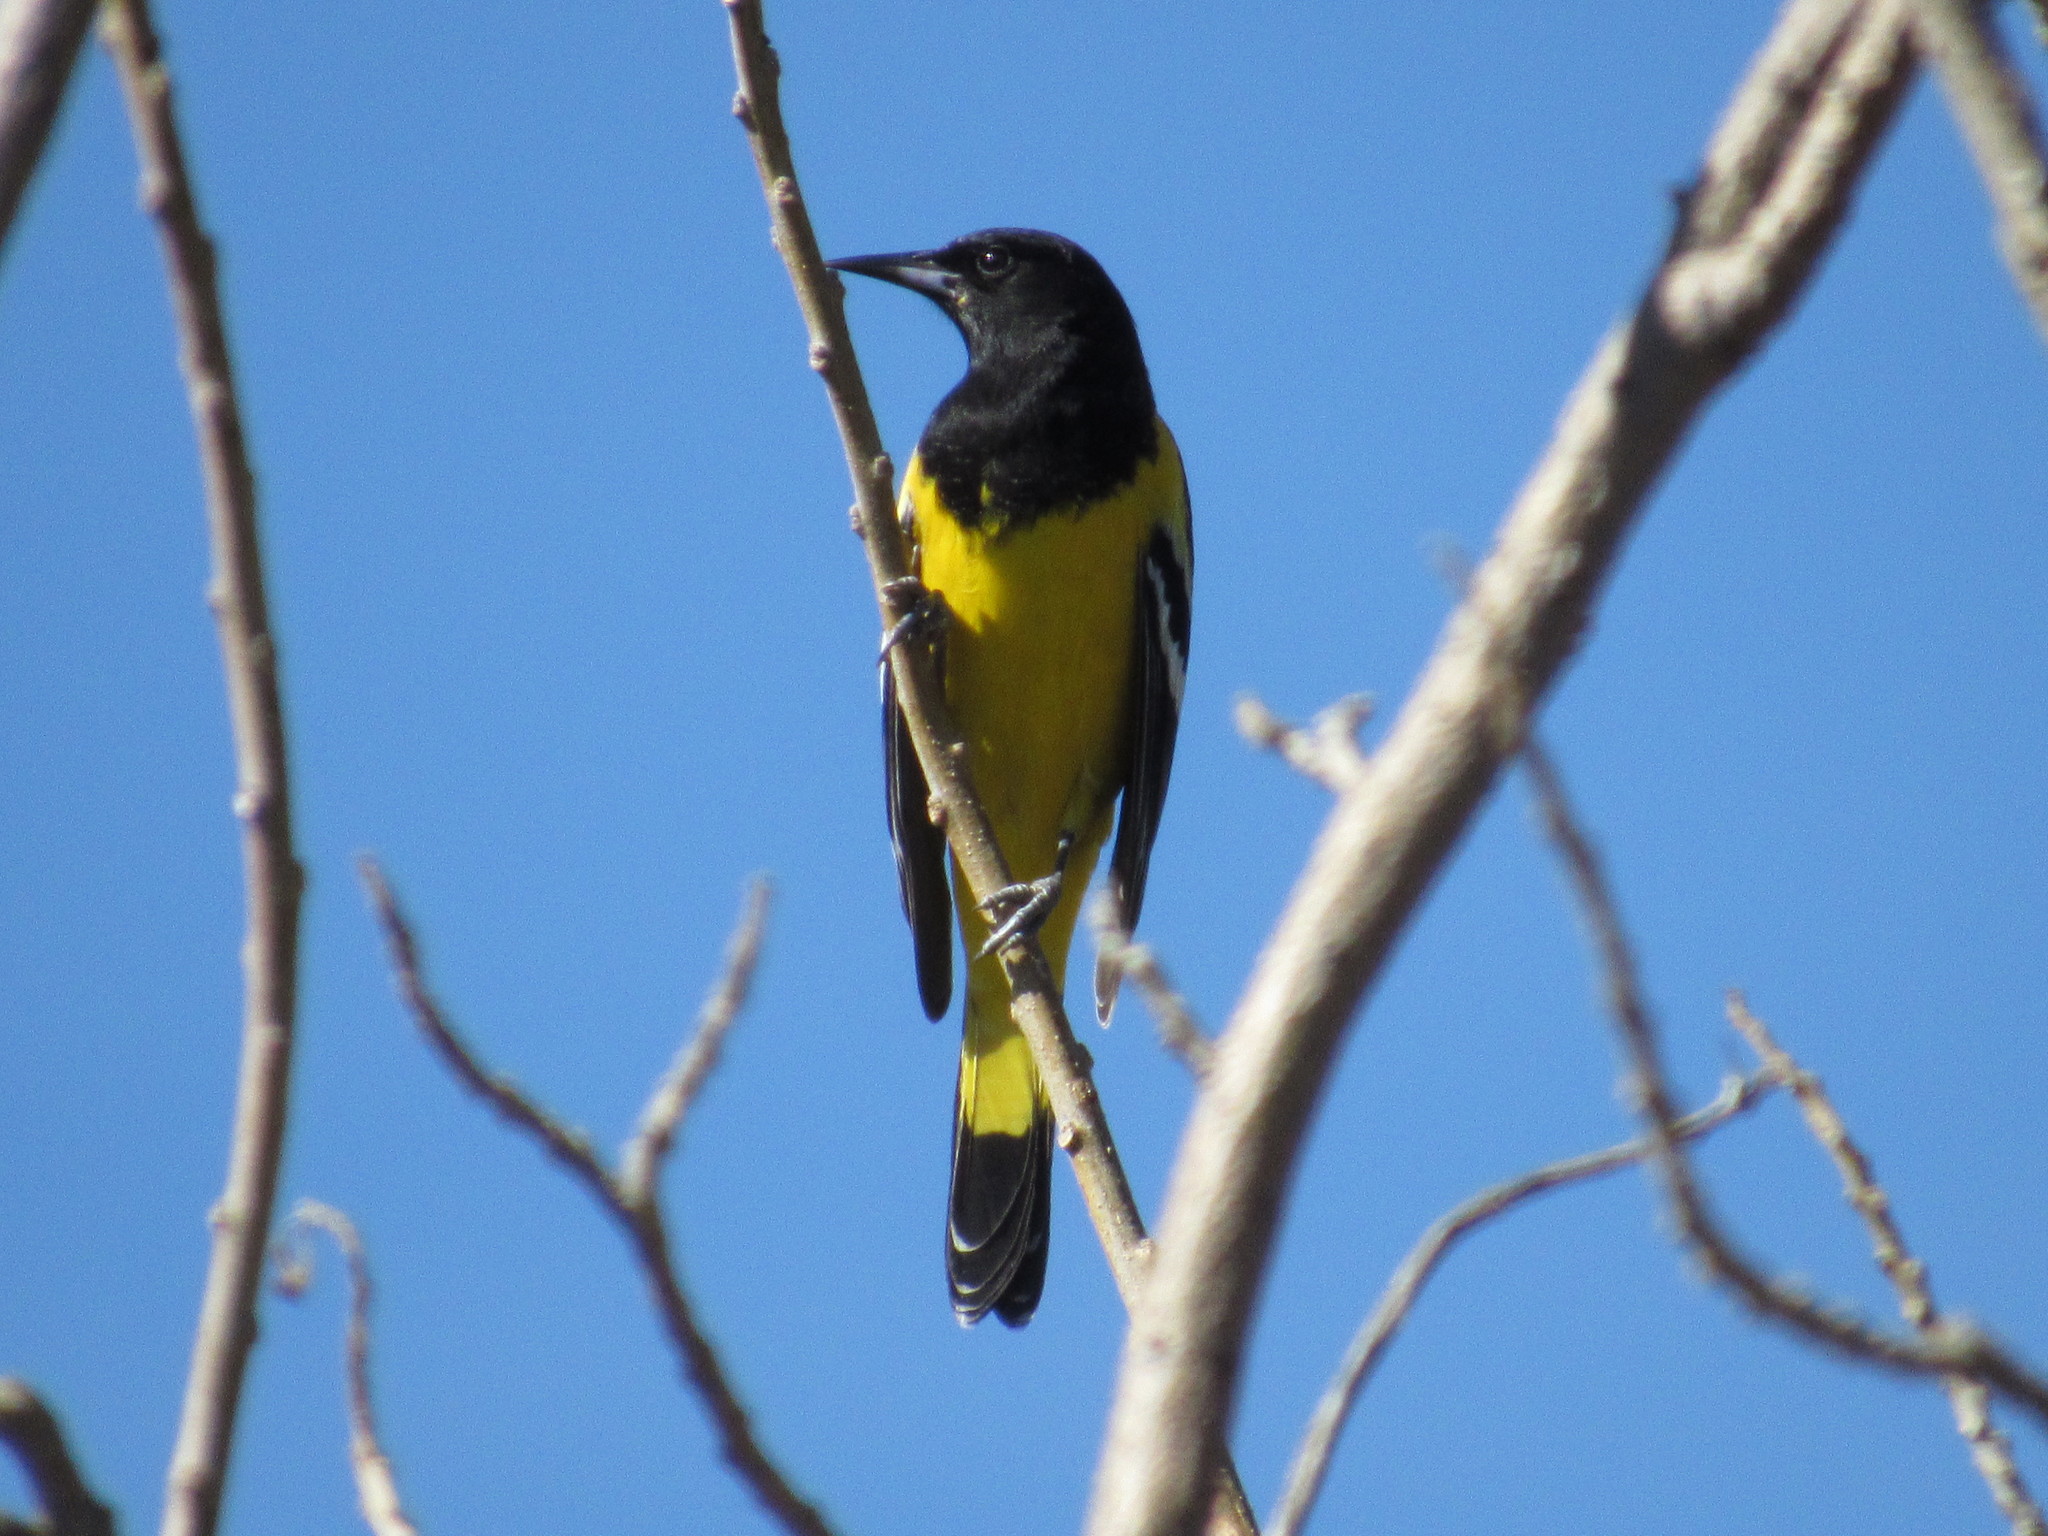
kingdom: Animalia
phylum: Chordata
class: Aves
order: Passeriformes
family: Icteridae
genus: Icterus
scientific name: Icterus parisorum
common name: Scott's oriole
